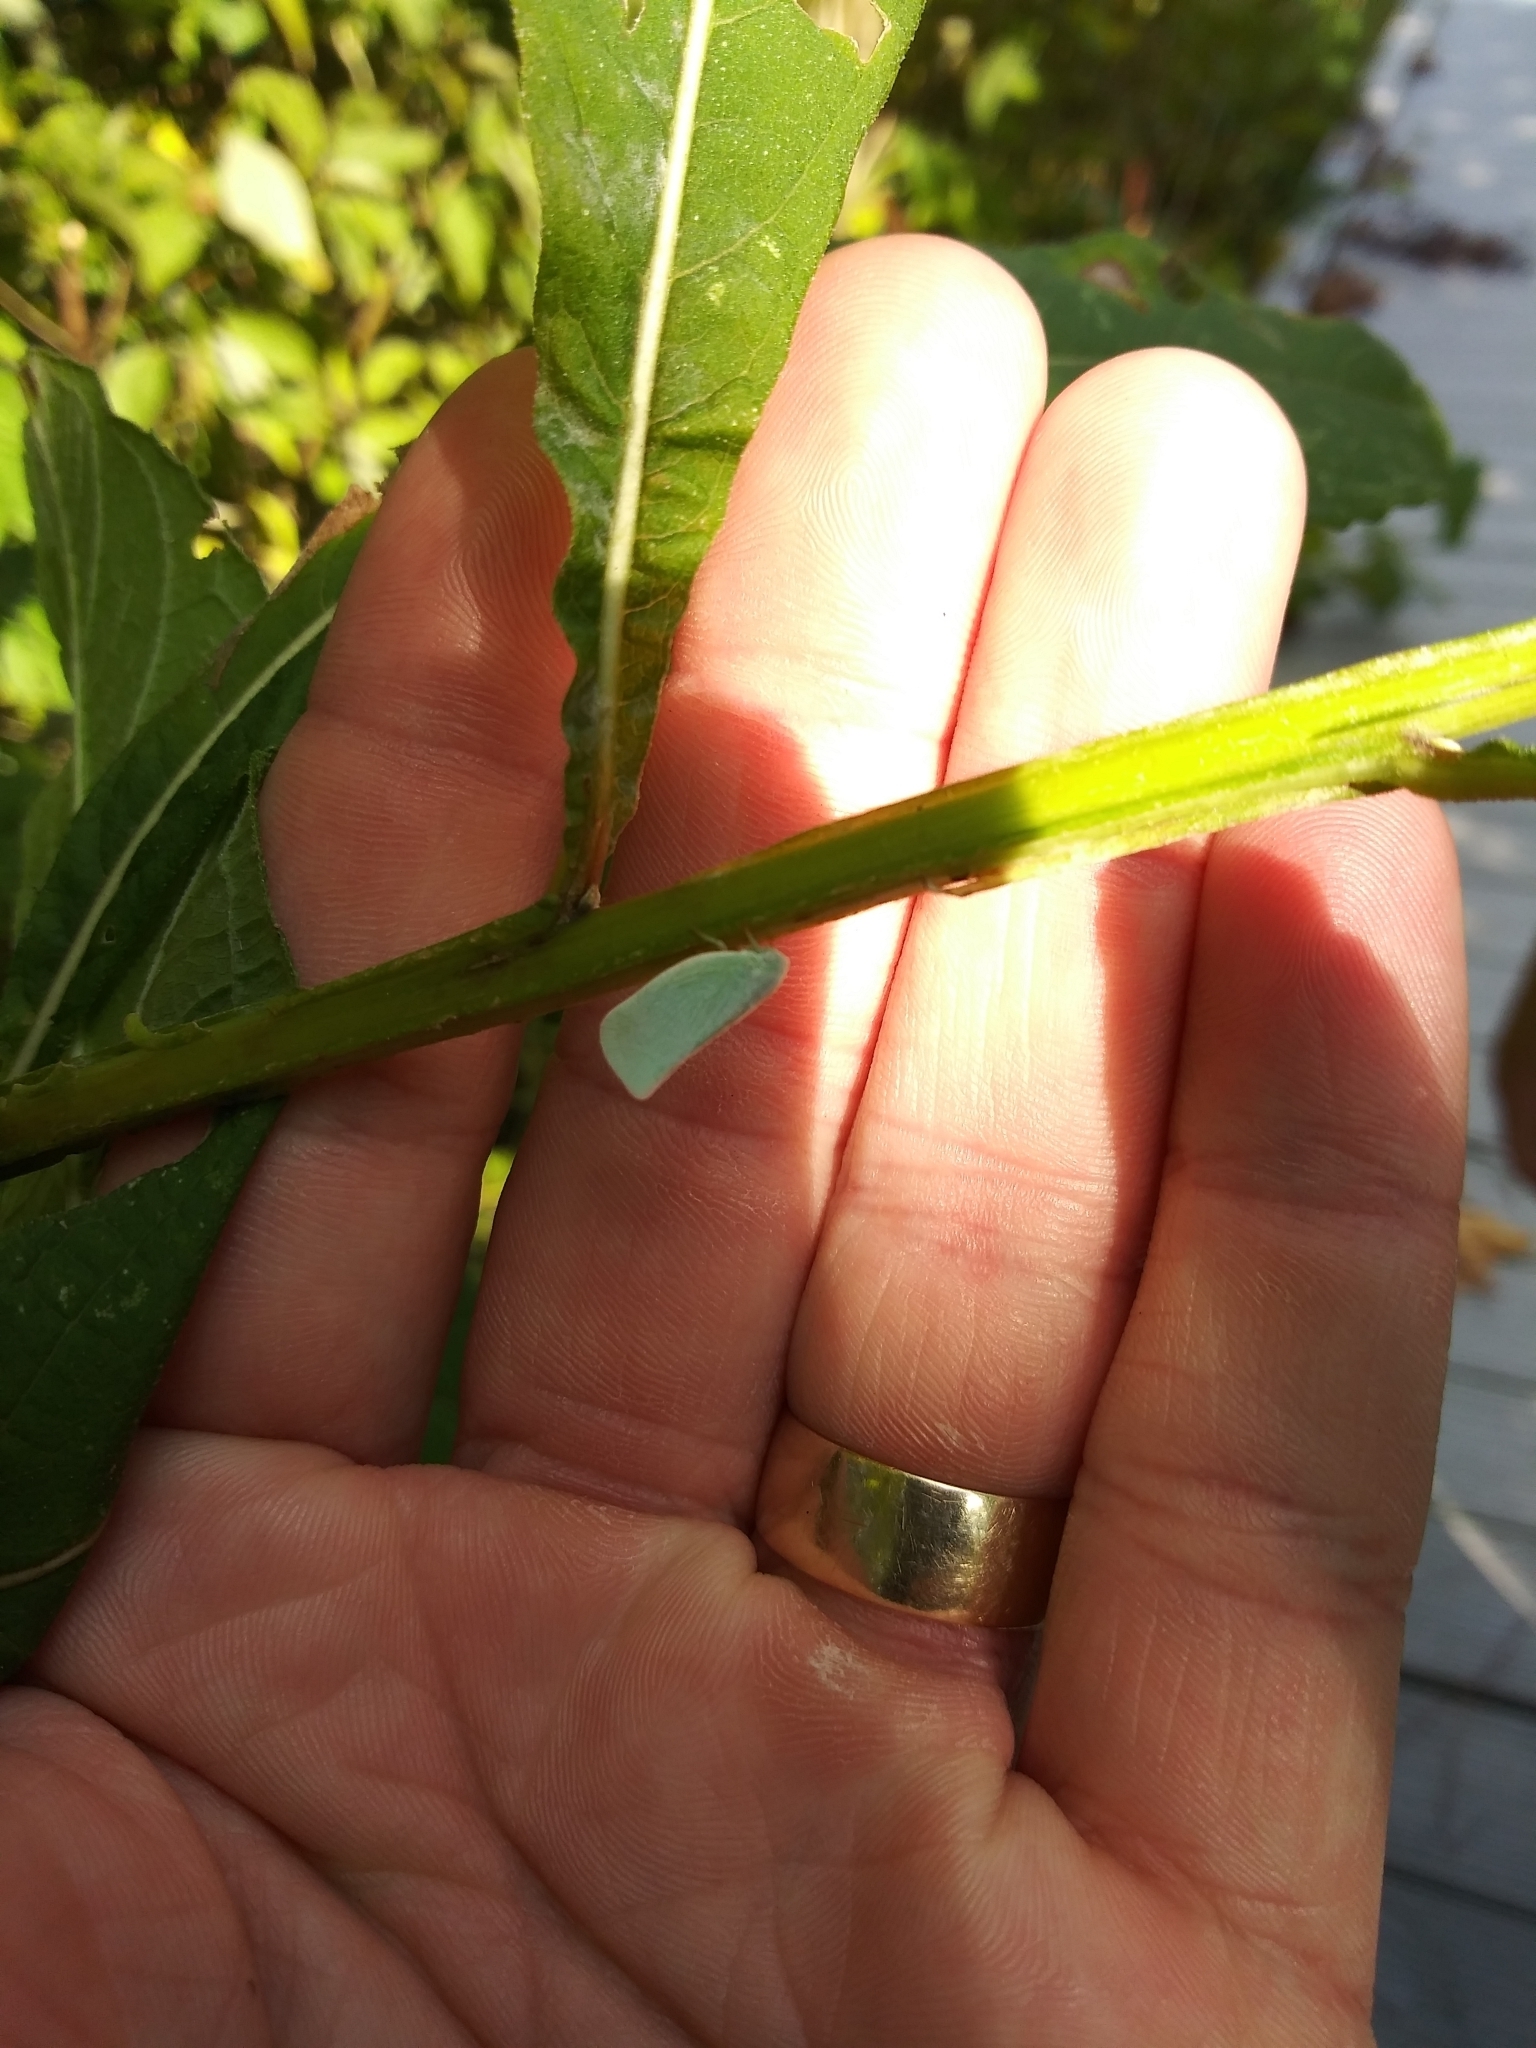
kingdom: Animalia
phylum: Arthropoda
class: Insecta
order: Hemiptera
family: Flatidae
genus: Flatormenis
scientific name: Flatormenis proxima
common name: Northern flatid planthopper
